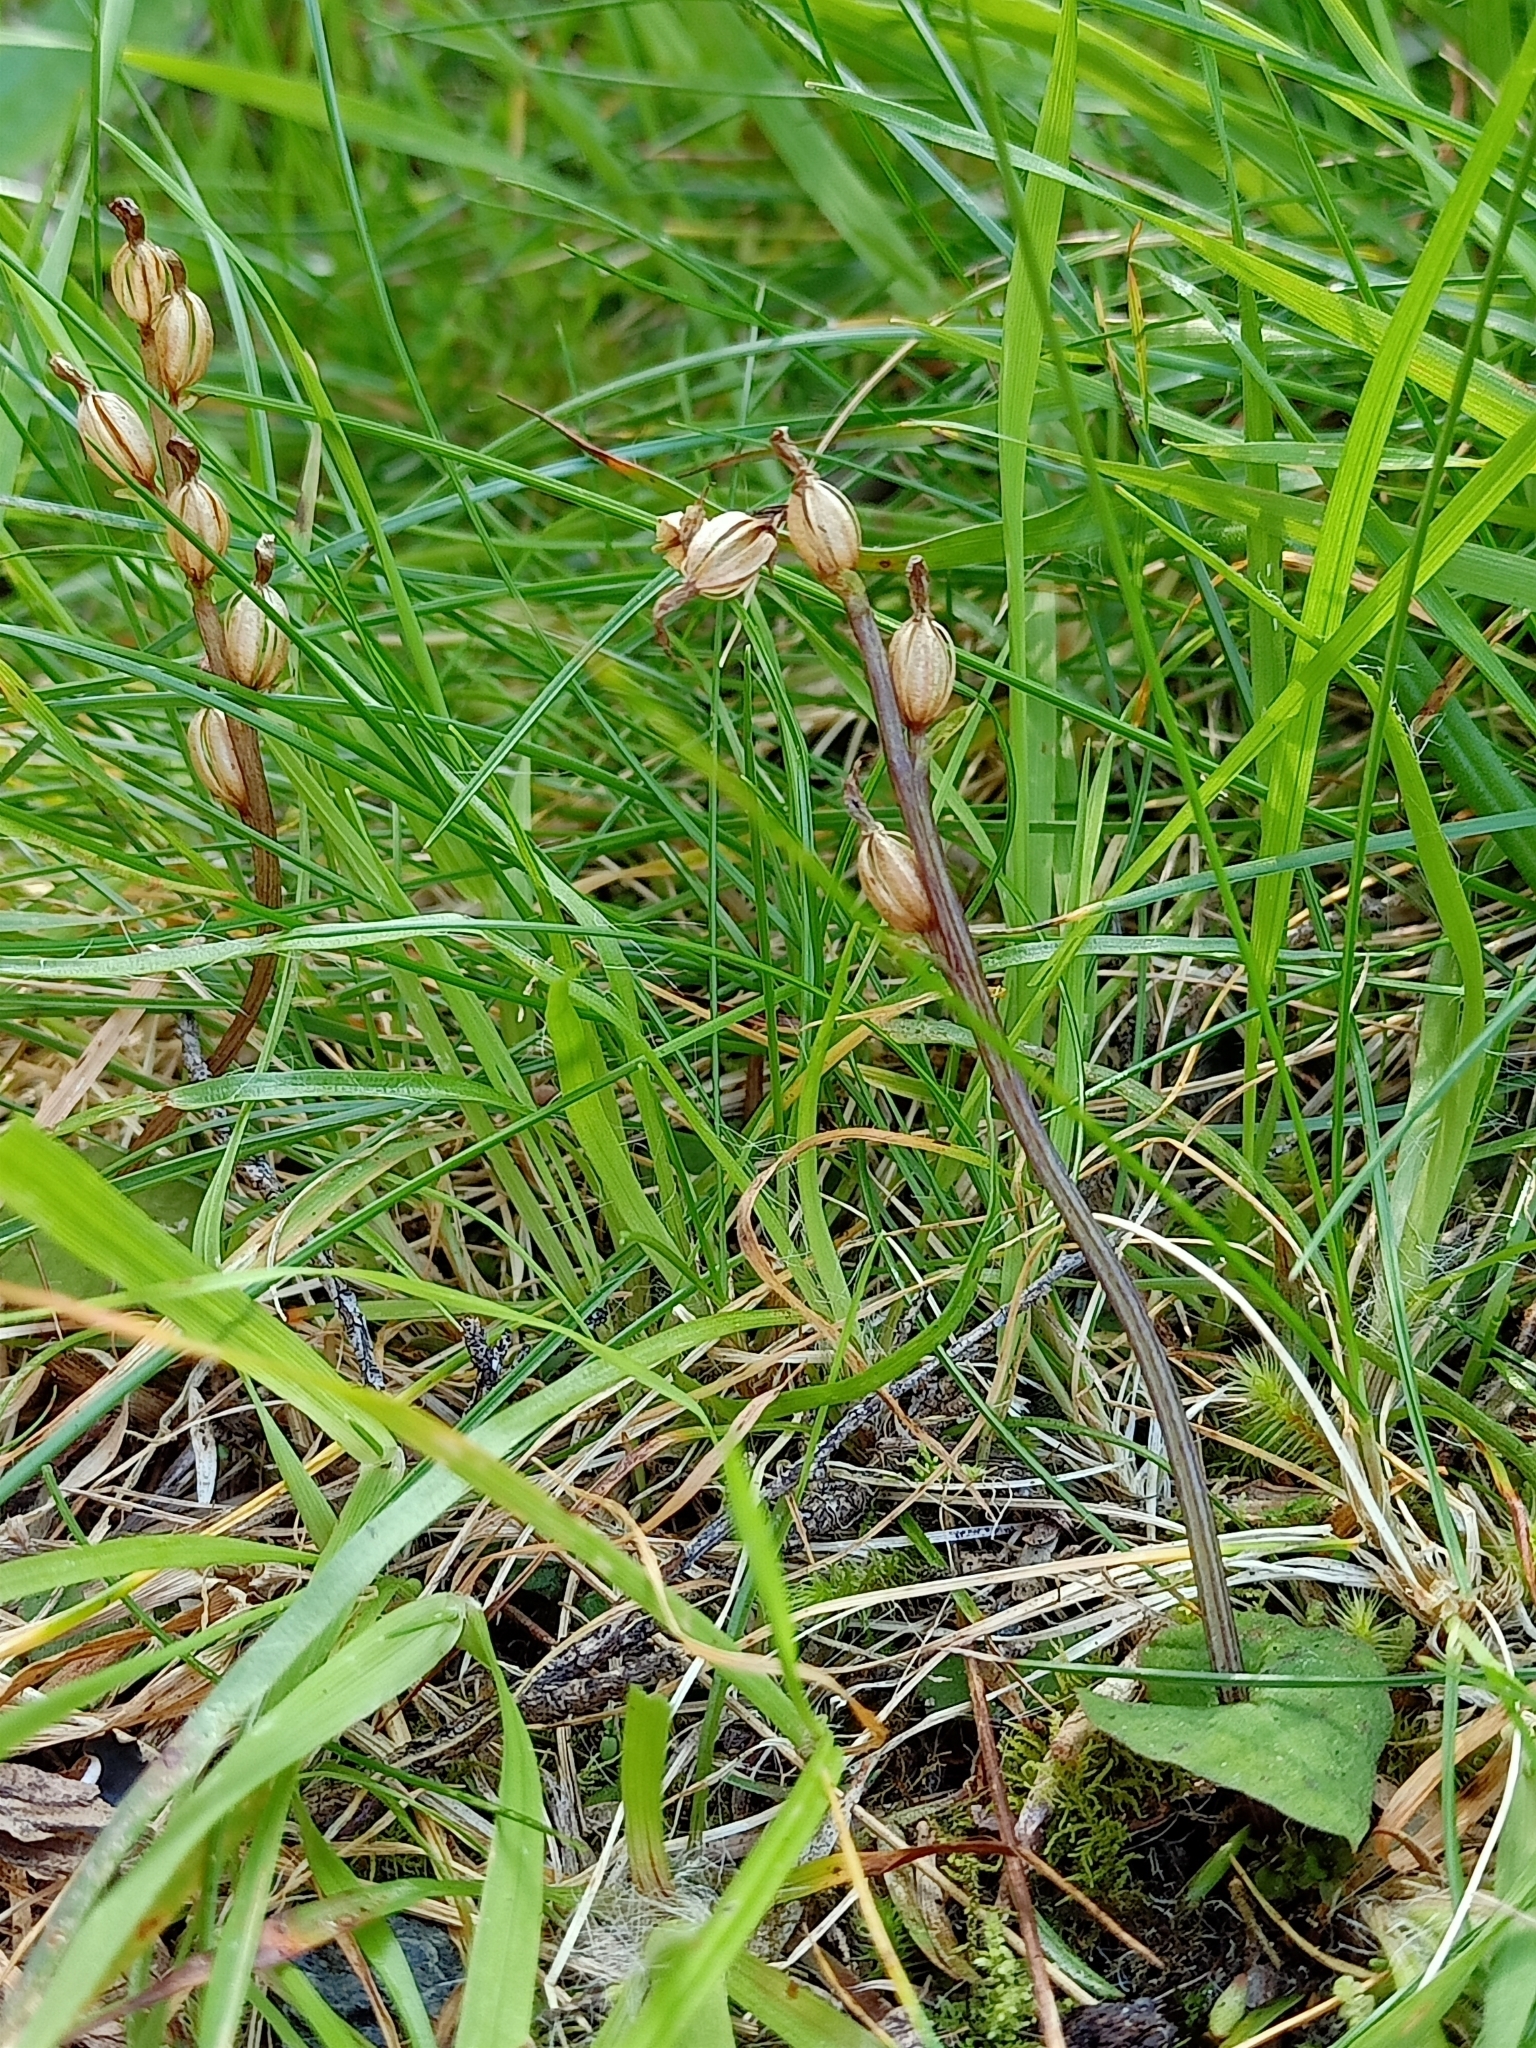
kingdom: Plantae
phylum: Tracheophyta
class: Liliopsida
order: Asparagales
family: Orchidaceae
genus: Acianthus
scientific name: Acianthus sinclairii
